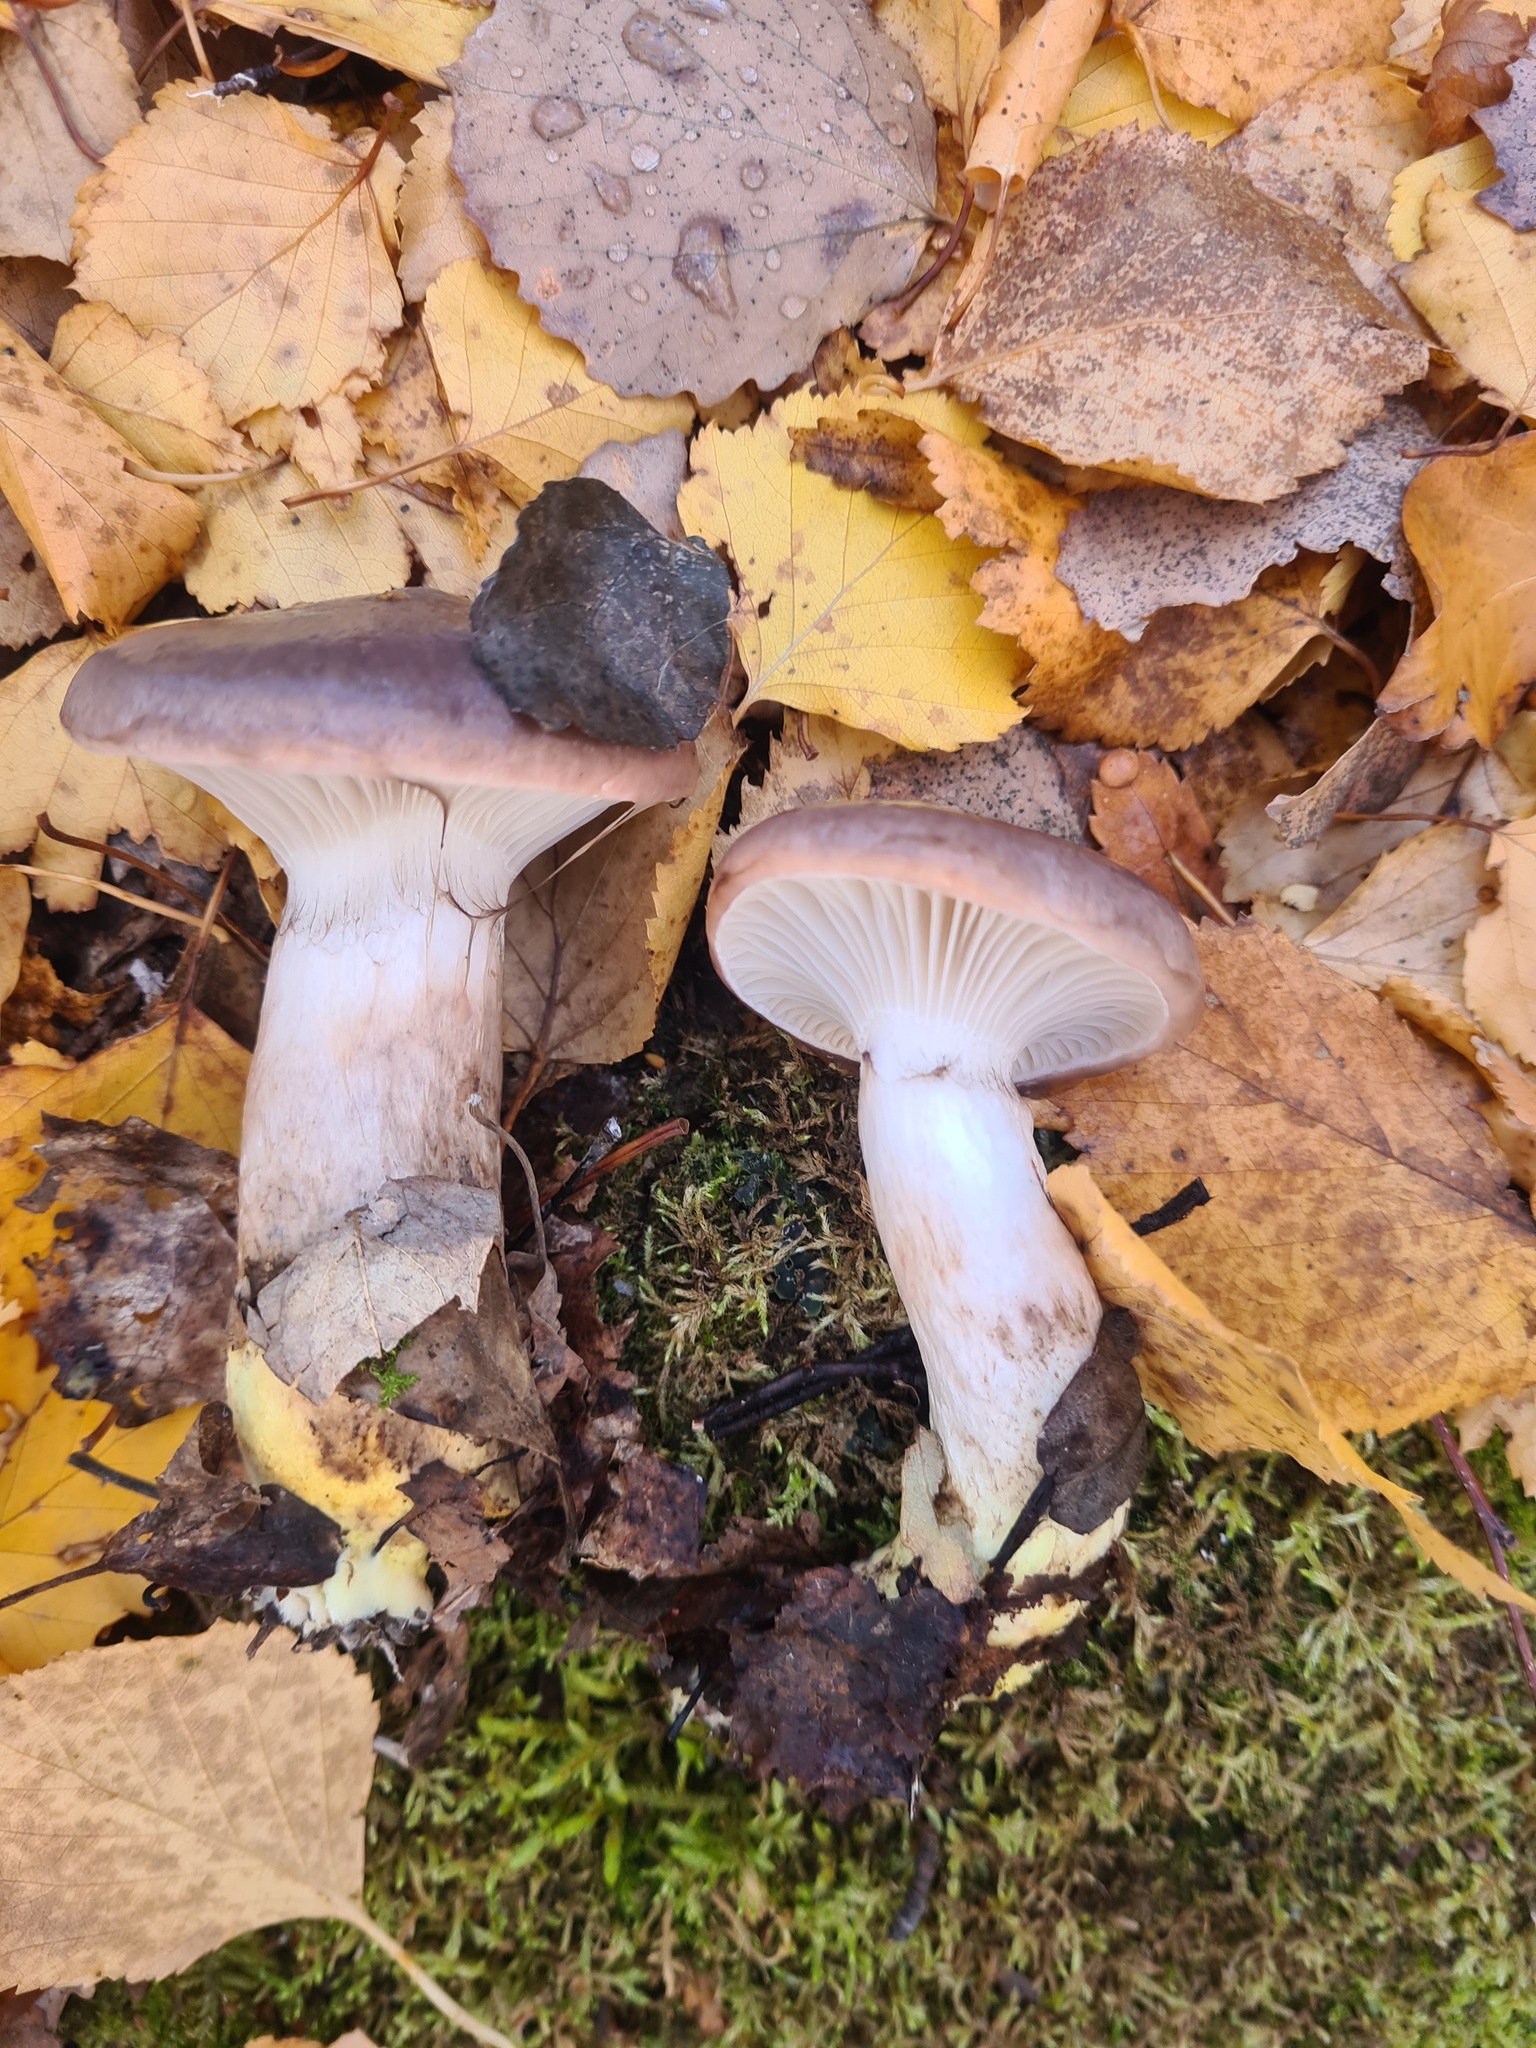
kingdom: Fungi
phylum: Basidiomycota
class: Agaricomycetes
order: Boletales
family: Gomphidiaceae
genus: Gomphidius
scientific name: Gomphidius glutinosus
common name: Slimy spike
